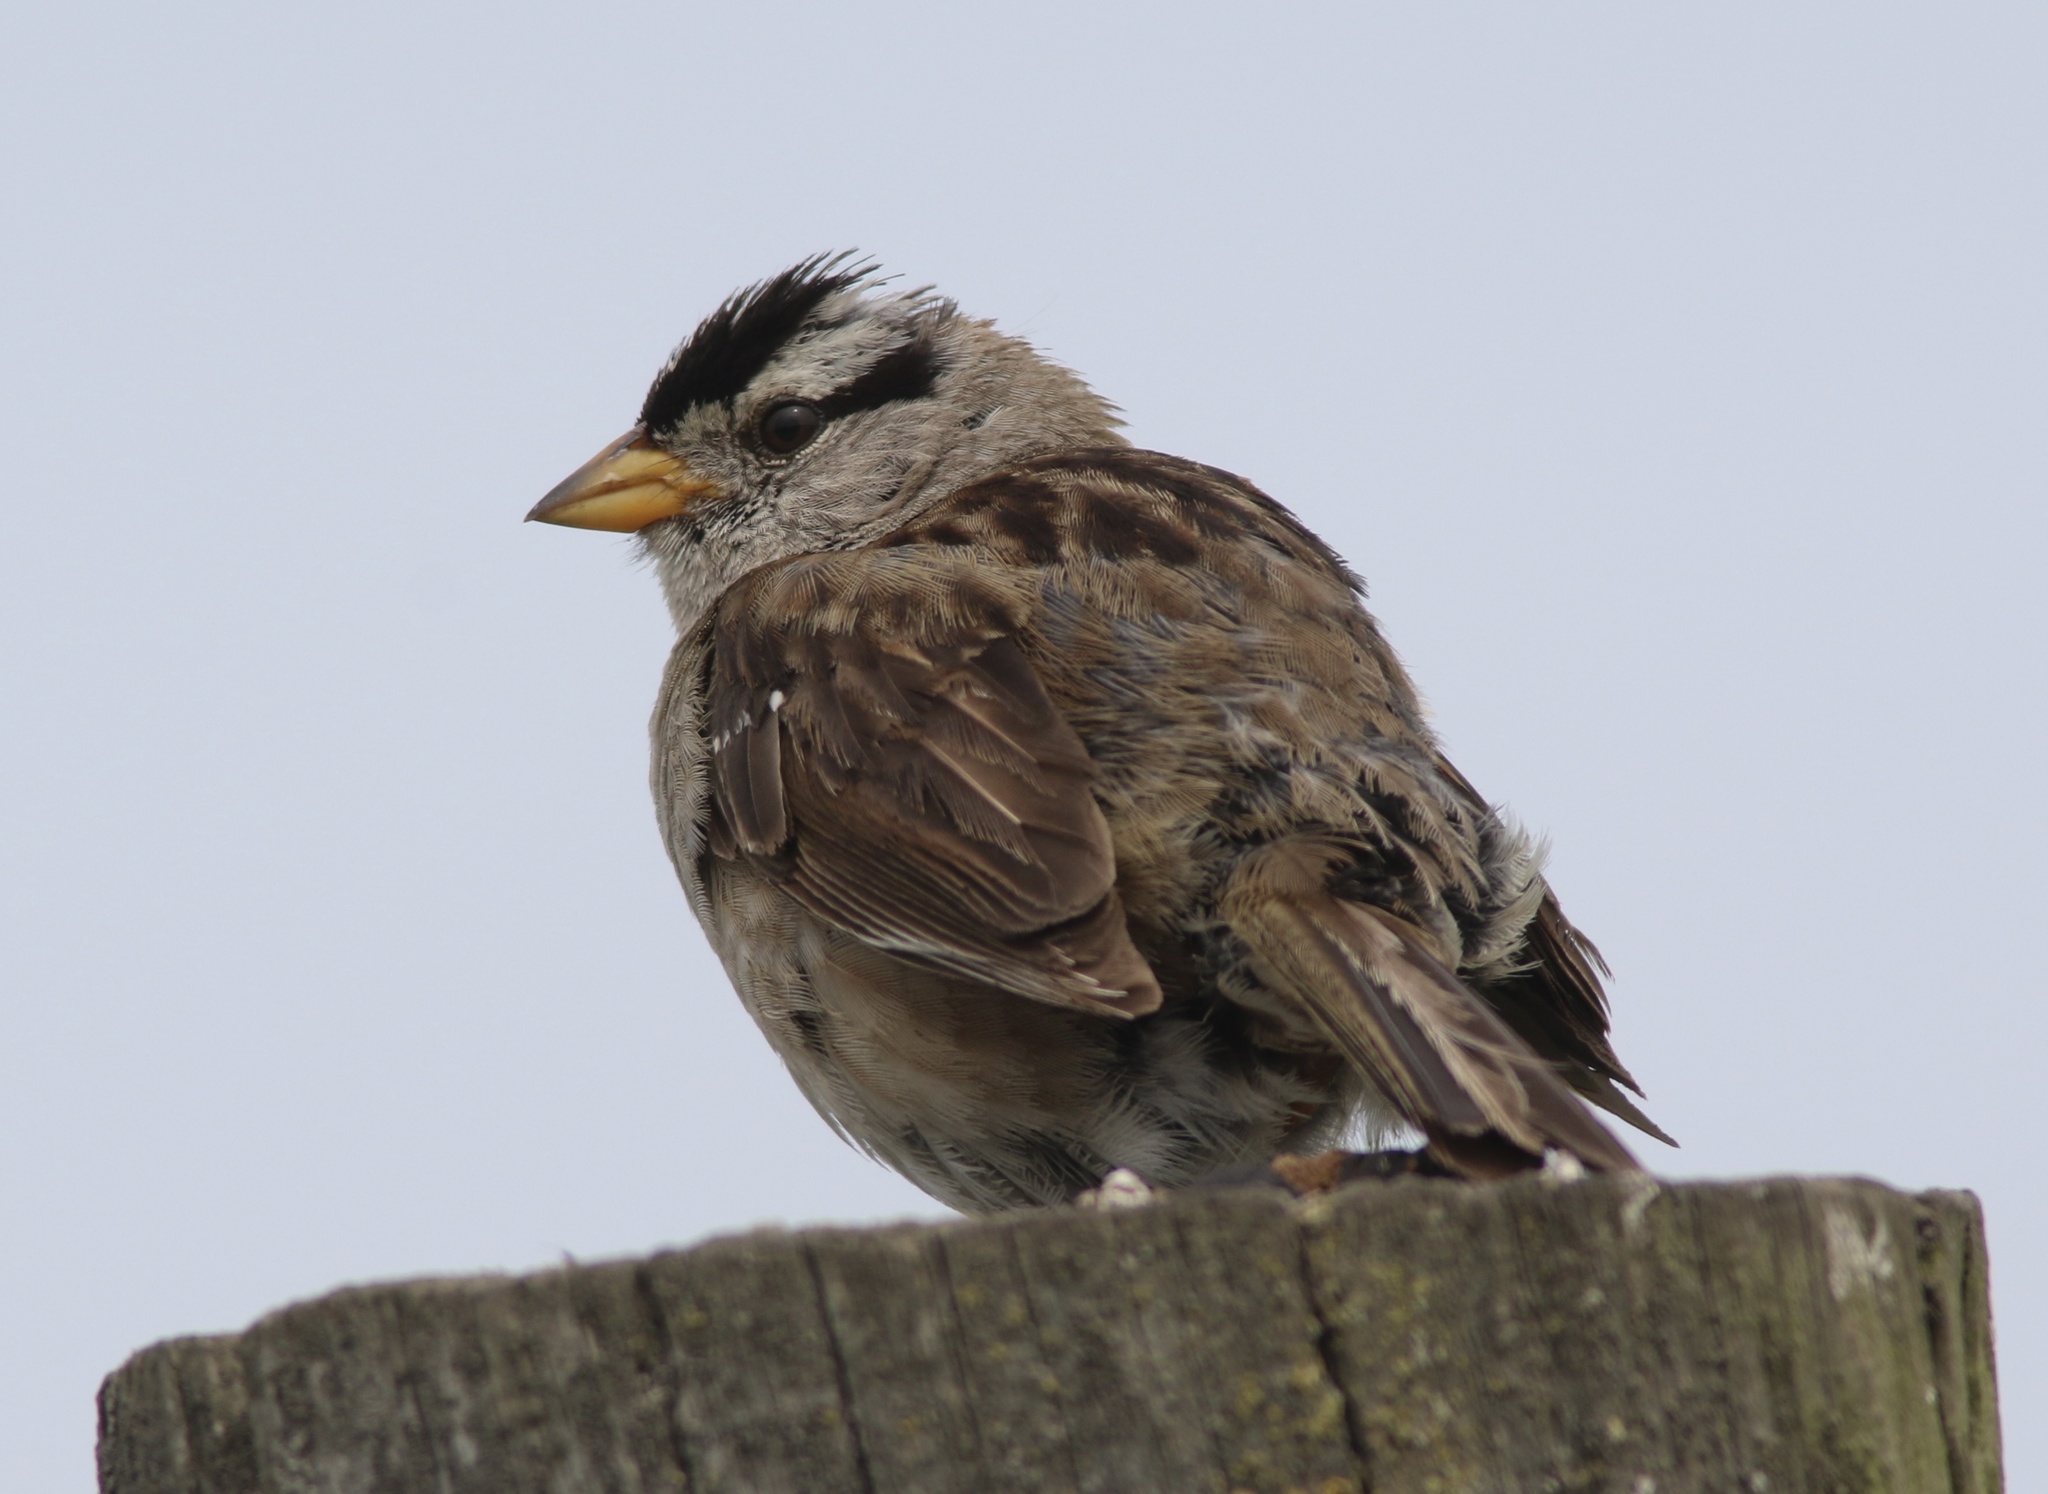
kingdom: Animalia
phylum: Chordata
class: Aves
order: Passeriformes
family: Passerellidae
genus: Zonotrichia
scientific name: Zonotrichia leucophrys
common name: White-crowned sparrow
